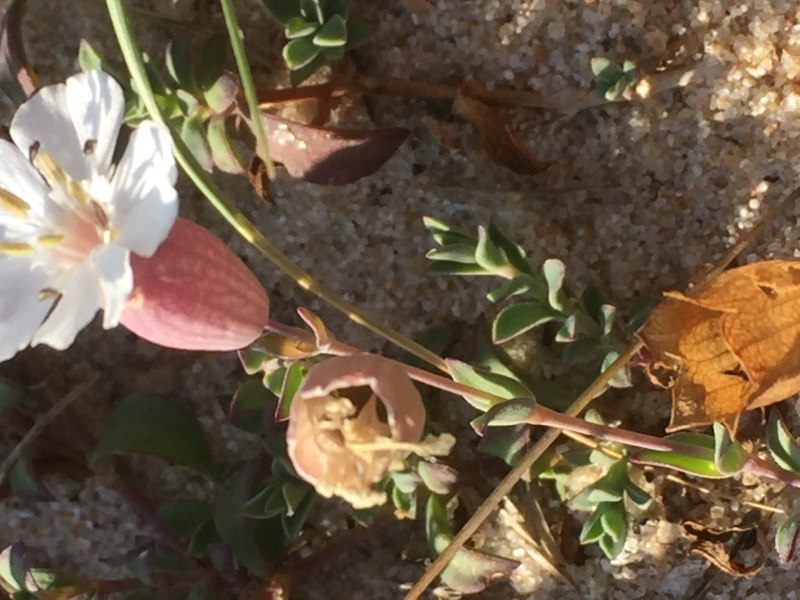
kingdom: Plantae
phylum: Tracheophyta
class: Magnoliopsida
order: Caryophyllales
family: Caryophyllaceae
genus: Silene
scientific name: Silene uniflora
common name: Sea campion
